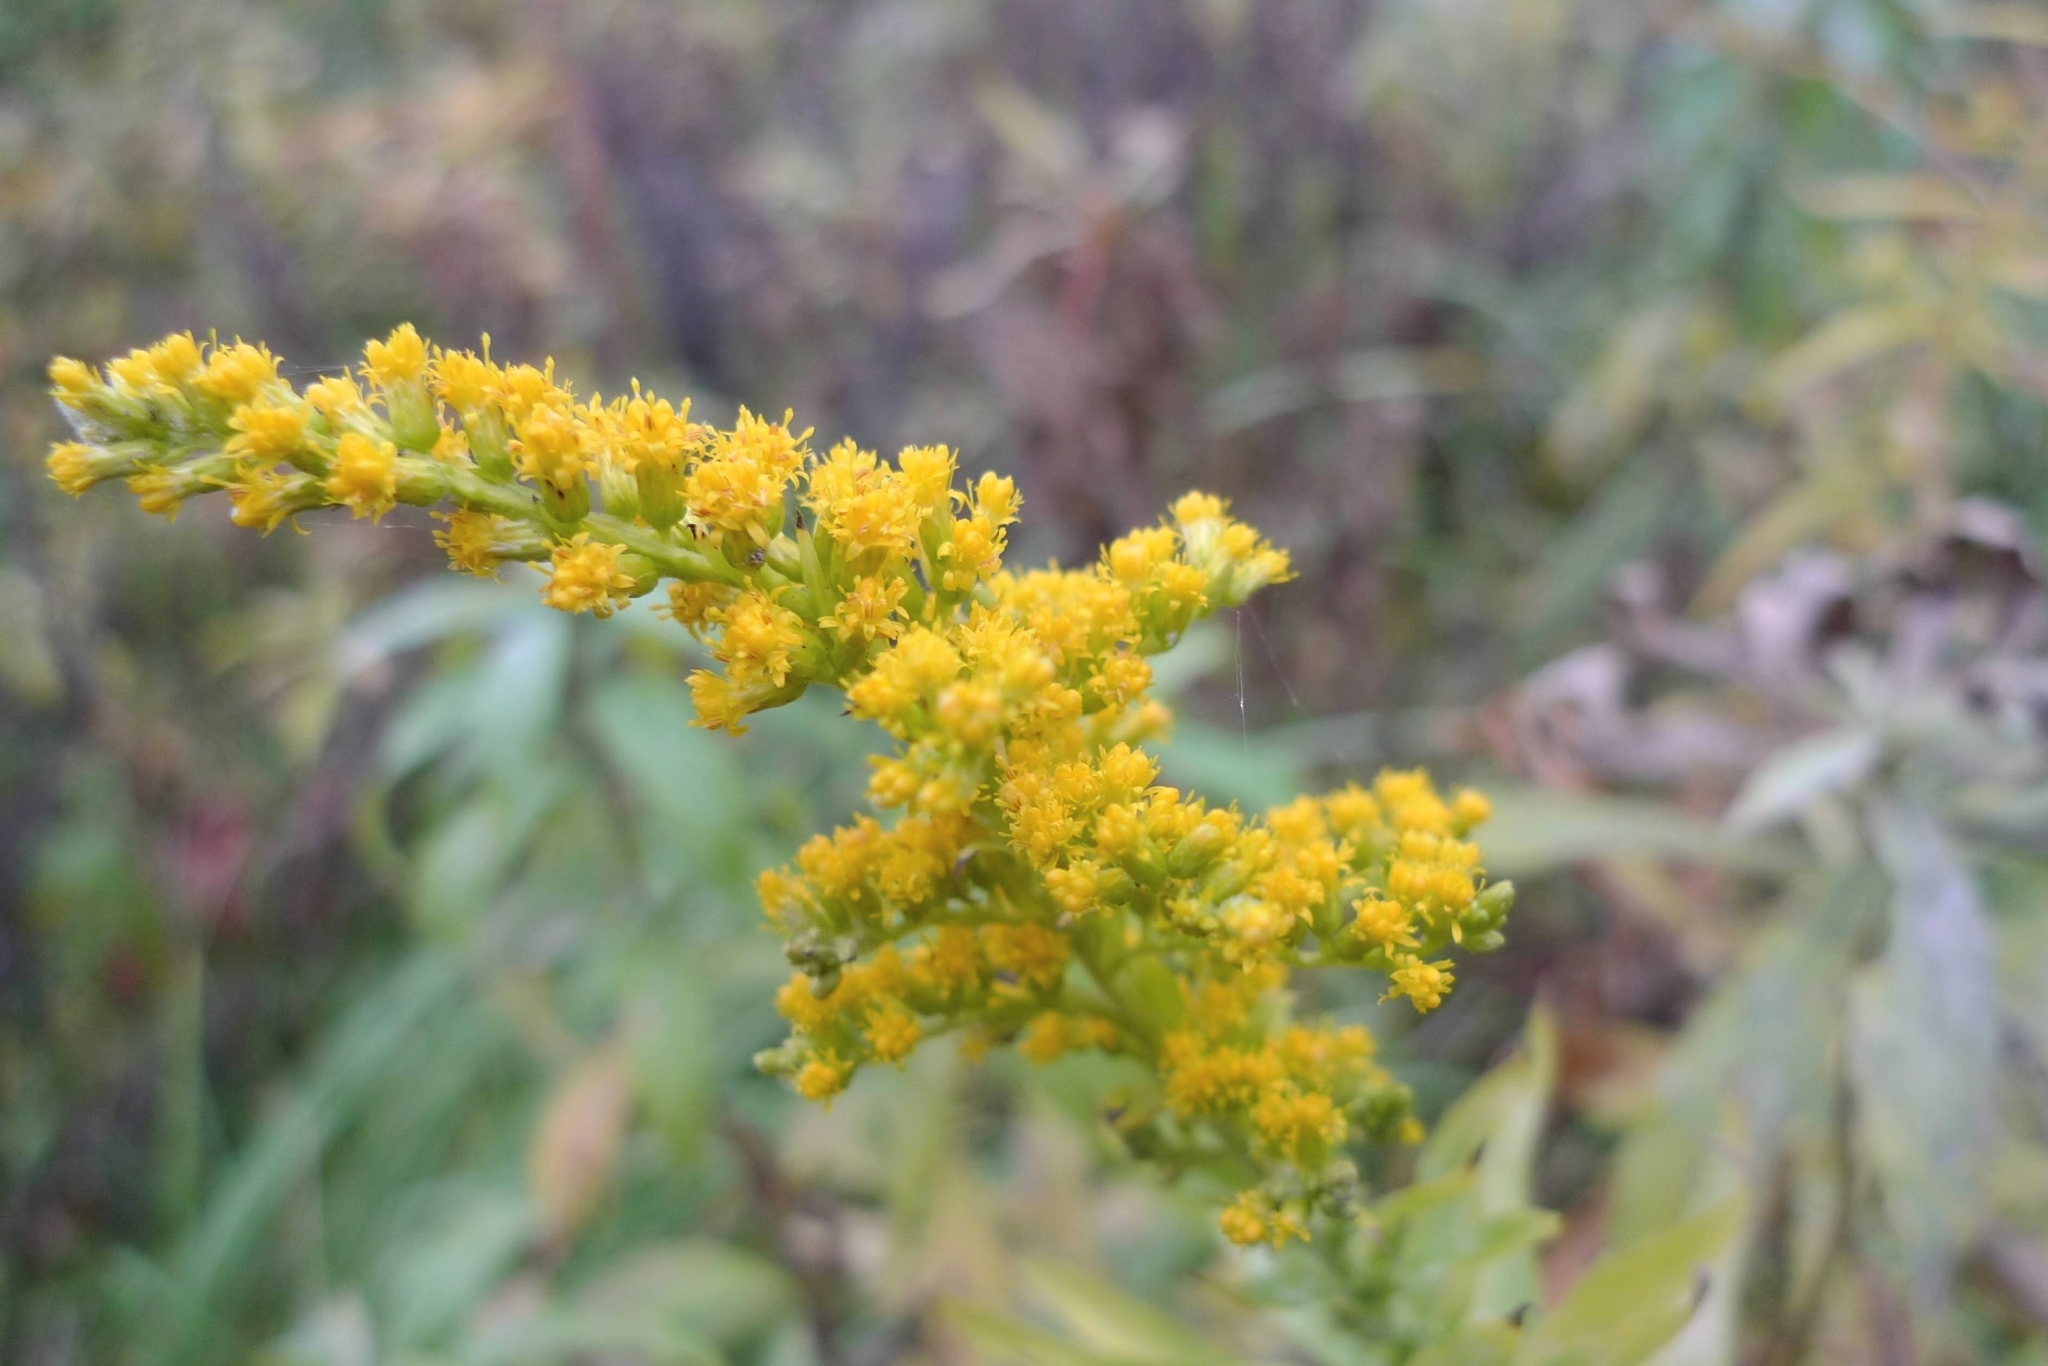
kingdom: Plantae
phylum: Tracheophyta
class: Magnoliopsida
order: Asterales
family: Asteraceae
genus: Solidago
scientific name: Solidago canadensis
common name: Canada goldenrod
